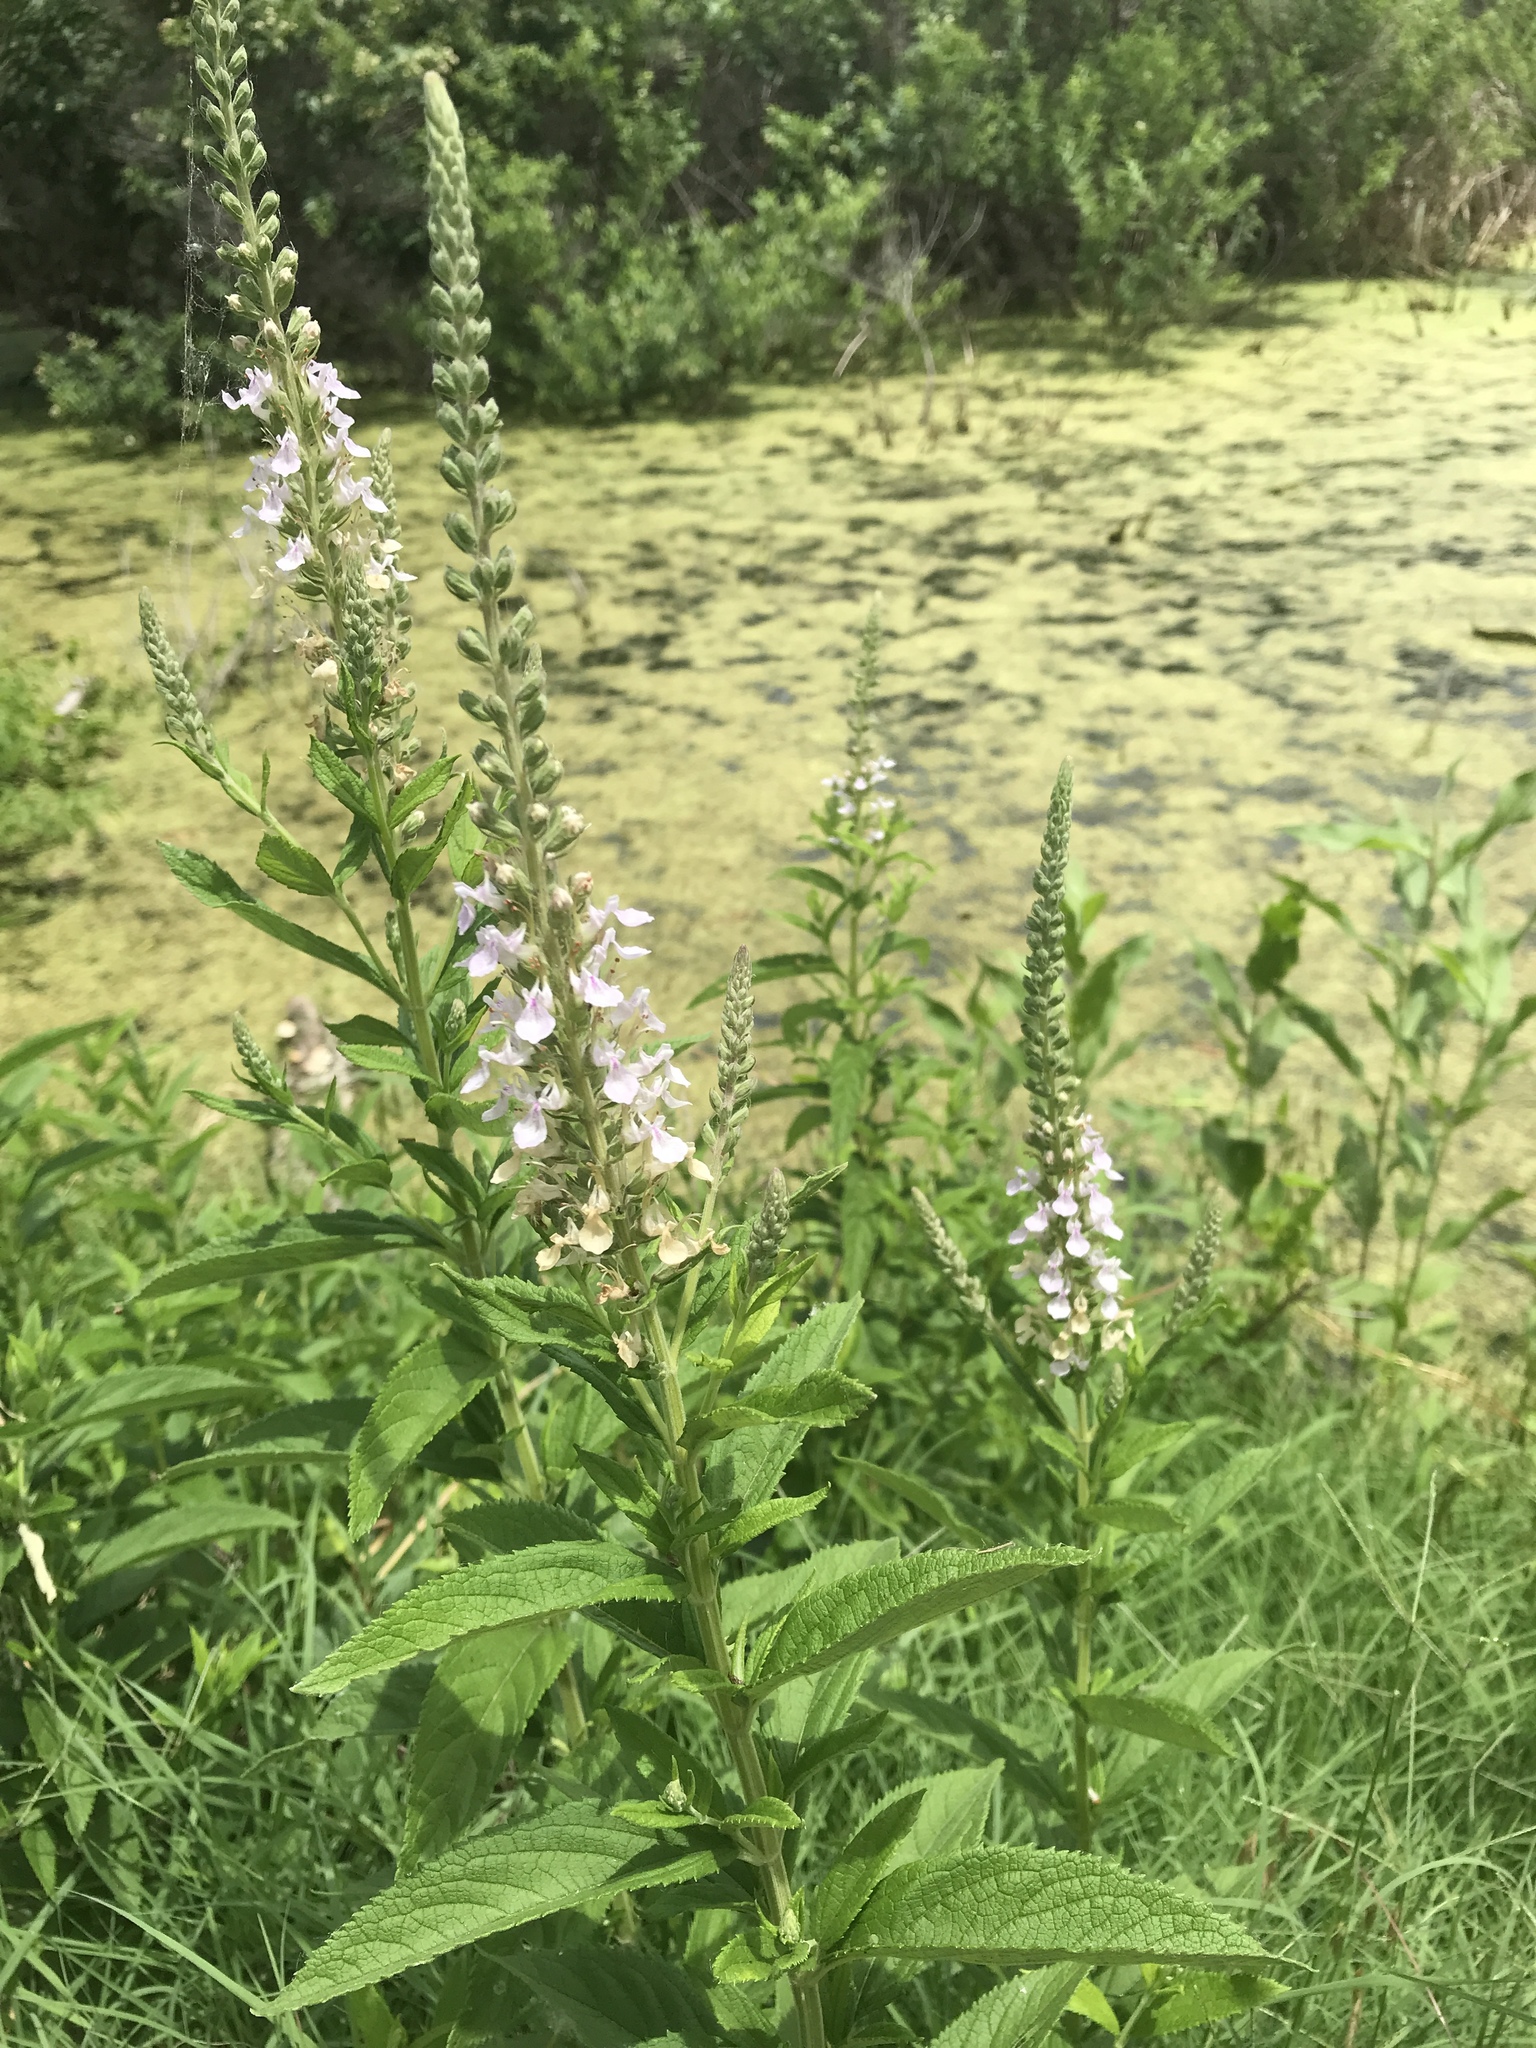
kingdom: Plantae
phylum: Tracheophyta
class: Magnoliopsida
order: Lamiales
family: Lamiaceae
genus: Teucrium
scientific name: Teucrium canadense
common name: American germander
